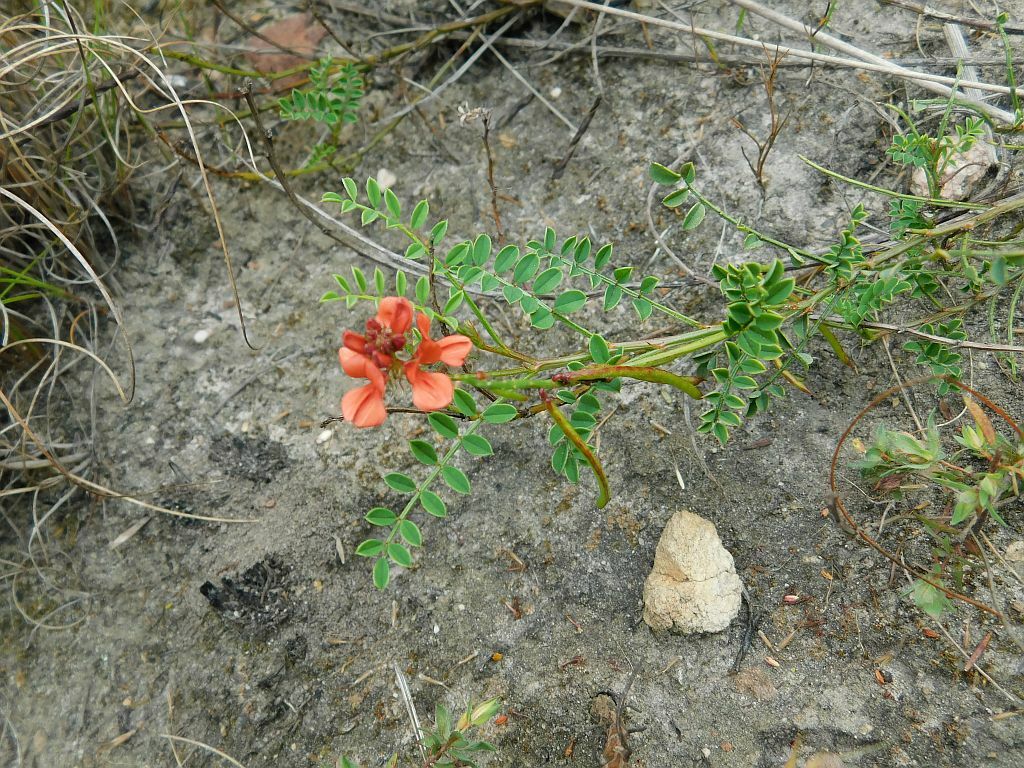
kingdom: Plantae
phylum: Tracheophyta
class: Magnoliopsida
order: Fabales
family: Fabaceae
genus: Indigofera
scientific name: Indigofera capillaris
